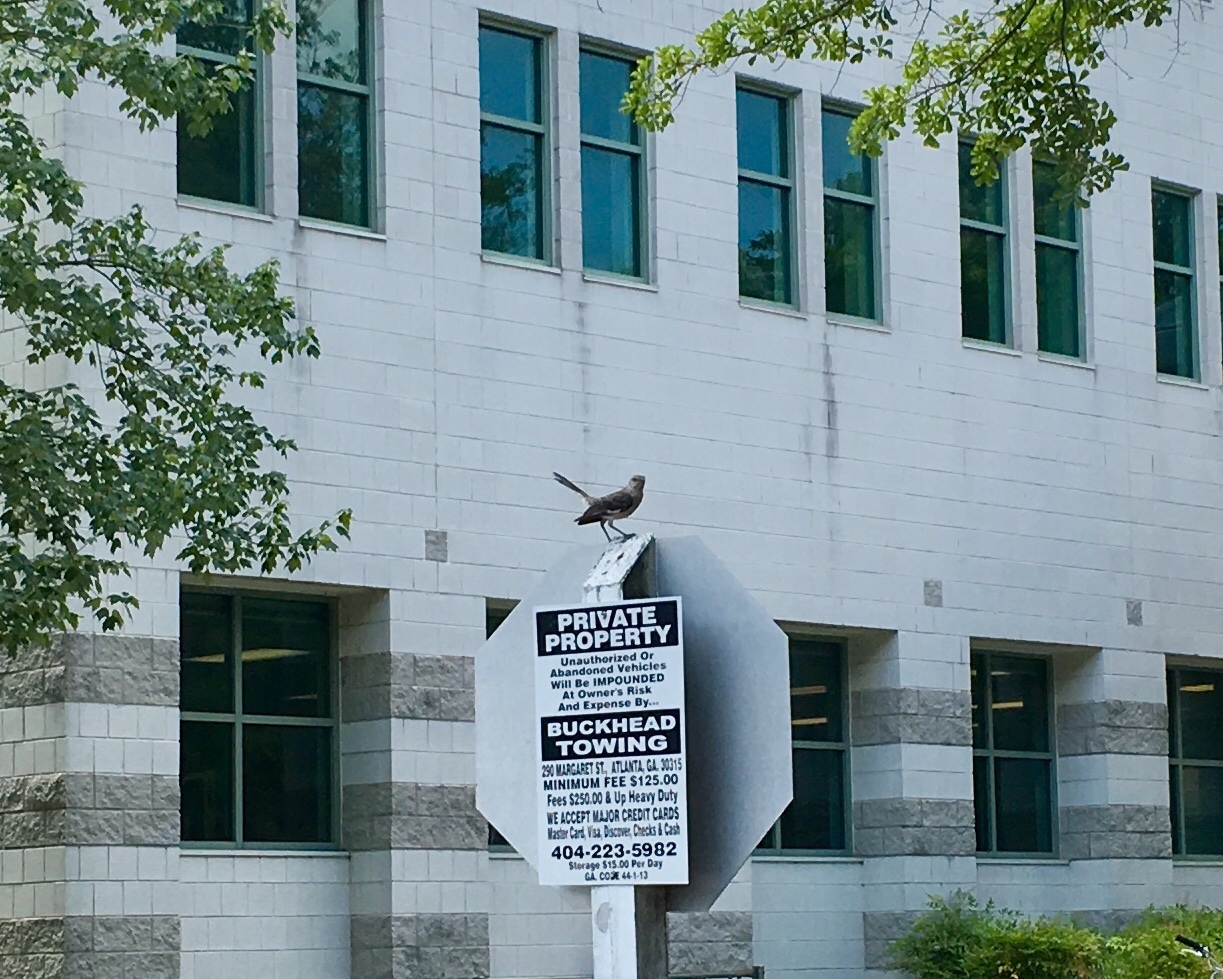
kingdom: Animalia
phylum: Chordata
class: Aves
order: Passeriformes
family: Mimidae
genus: Mimus
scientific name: Mimus polyglottos
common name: Northern mockingbird
